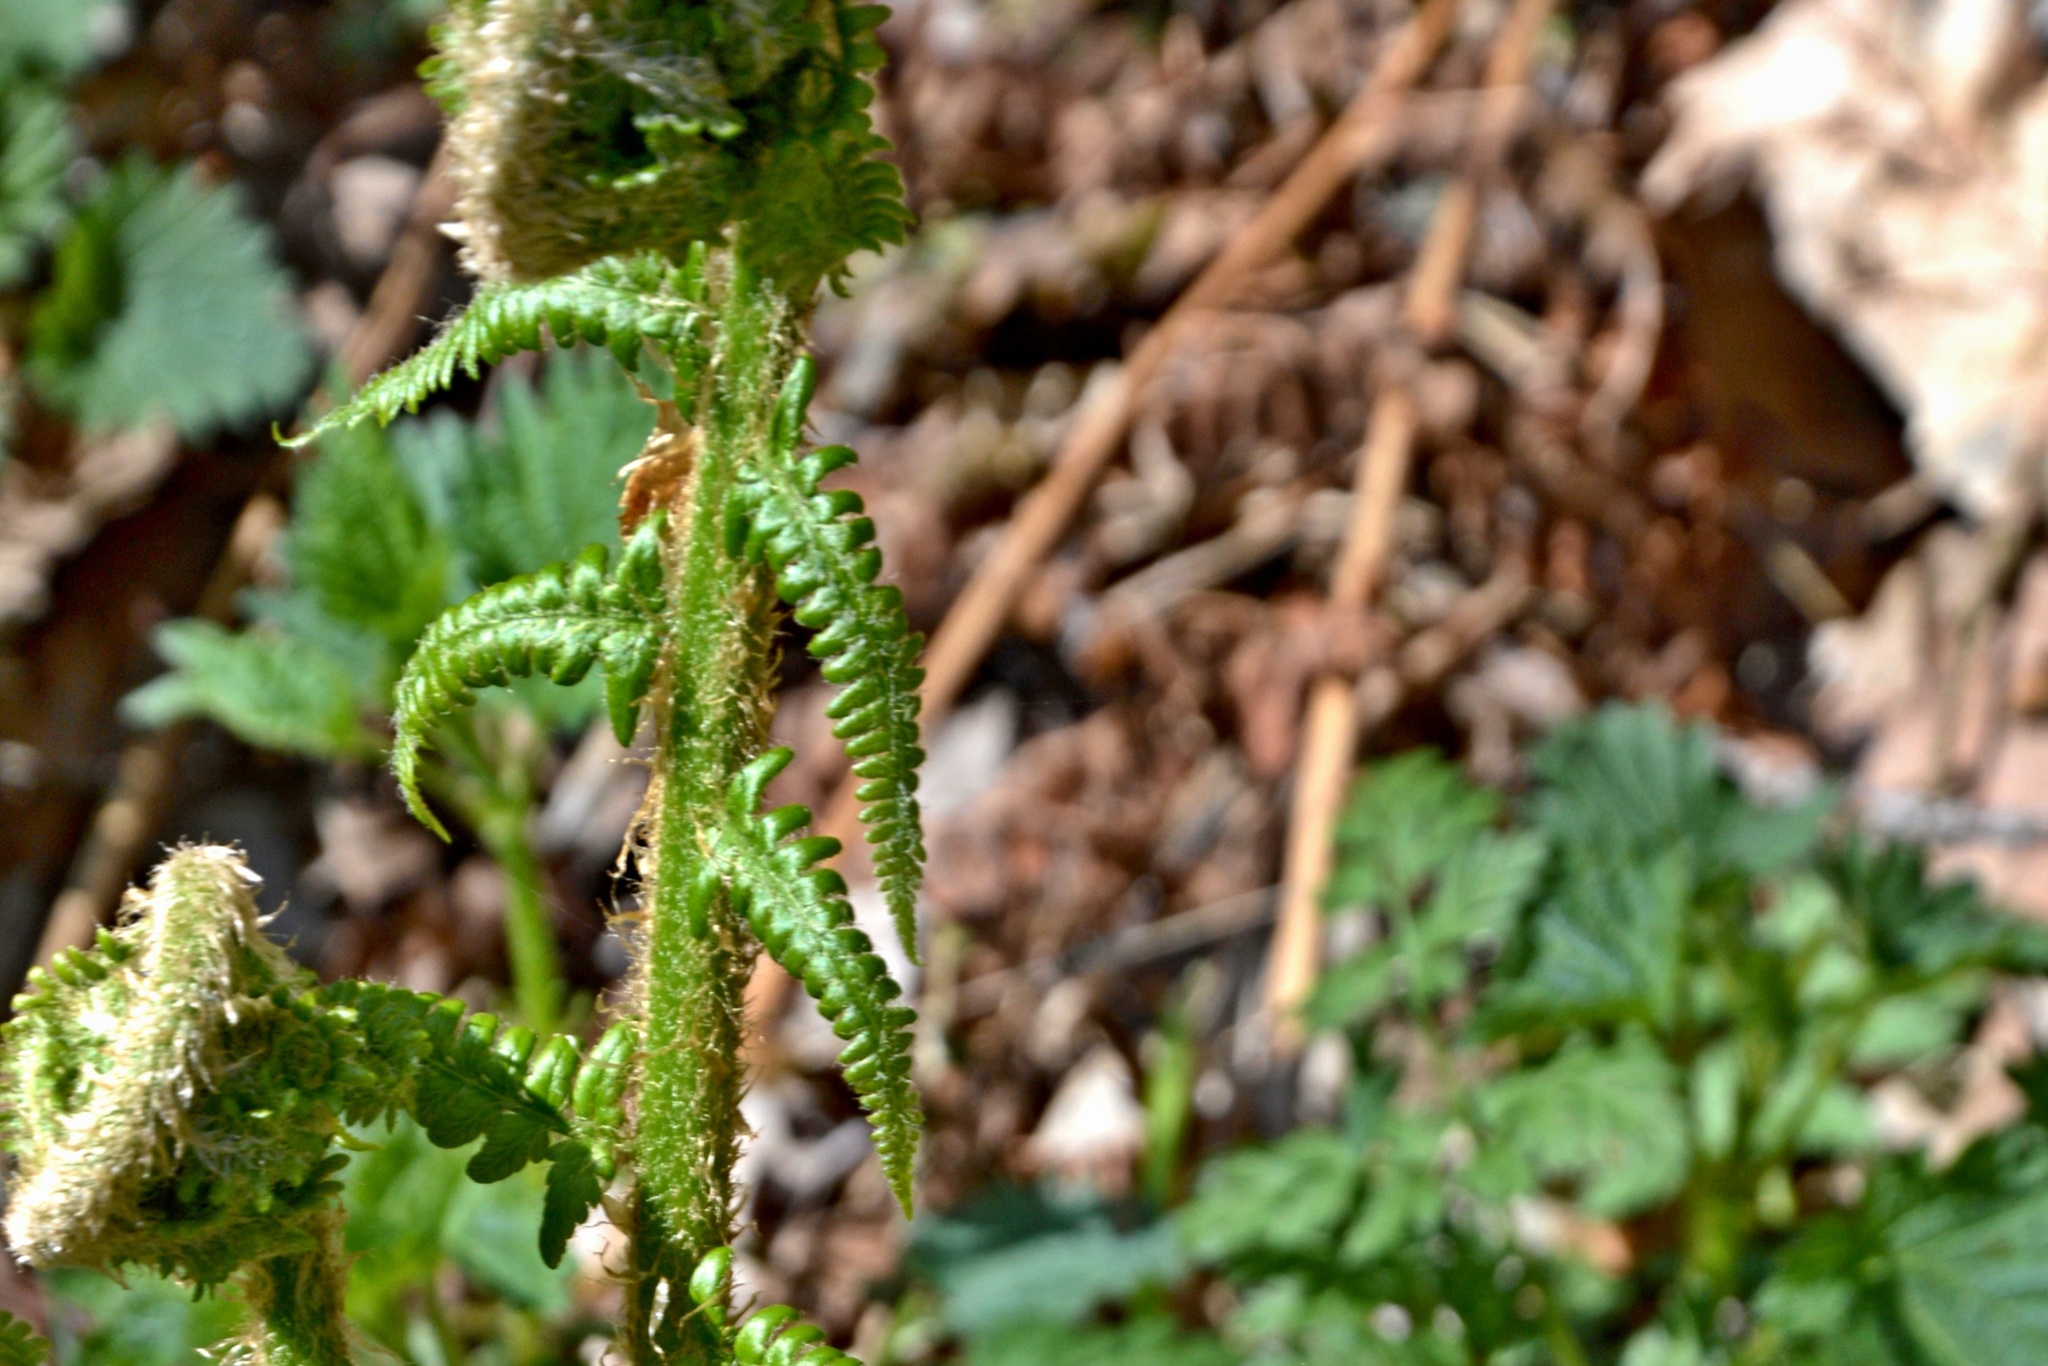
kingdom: Plantae
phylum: Tracheophyta
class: Polypodiopsida
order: Polypodiales
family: Dryopteridaceae
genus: Dryopteris
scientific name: Dryopteris filix-mas
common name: Male fern
